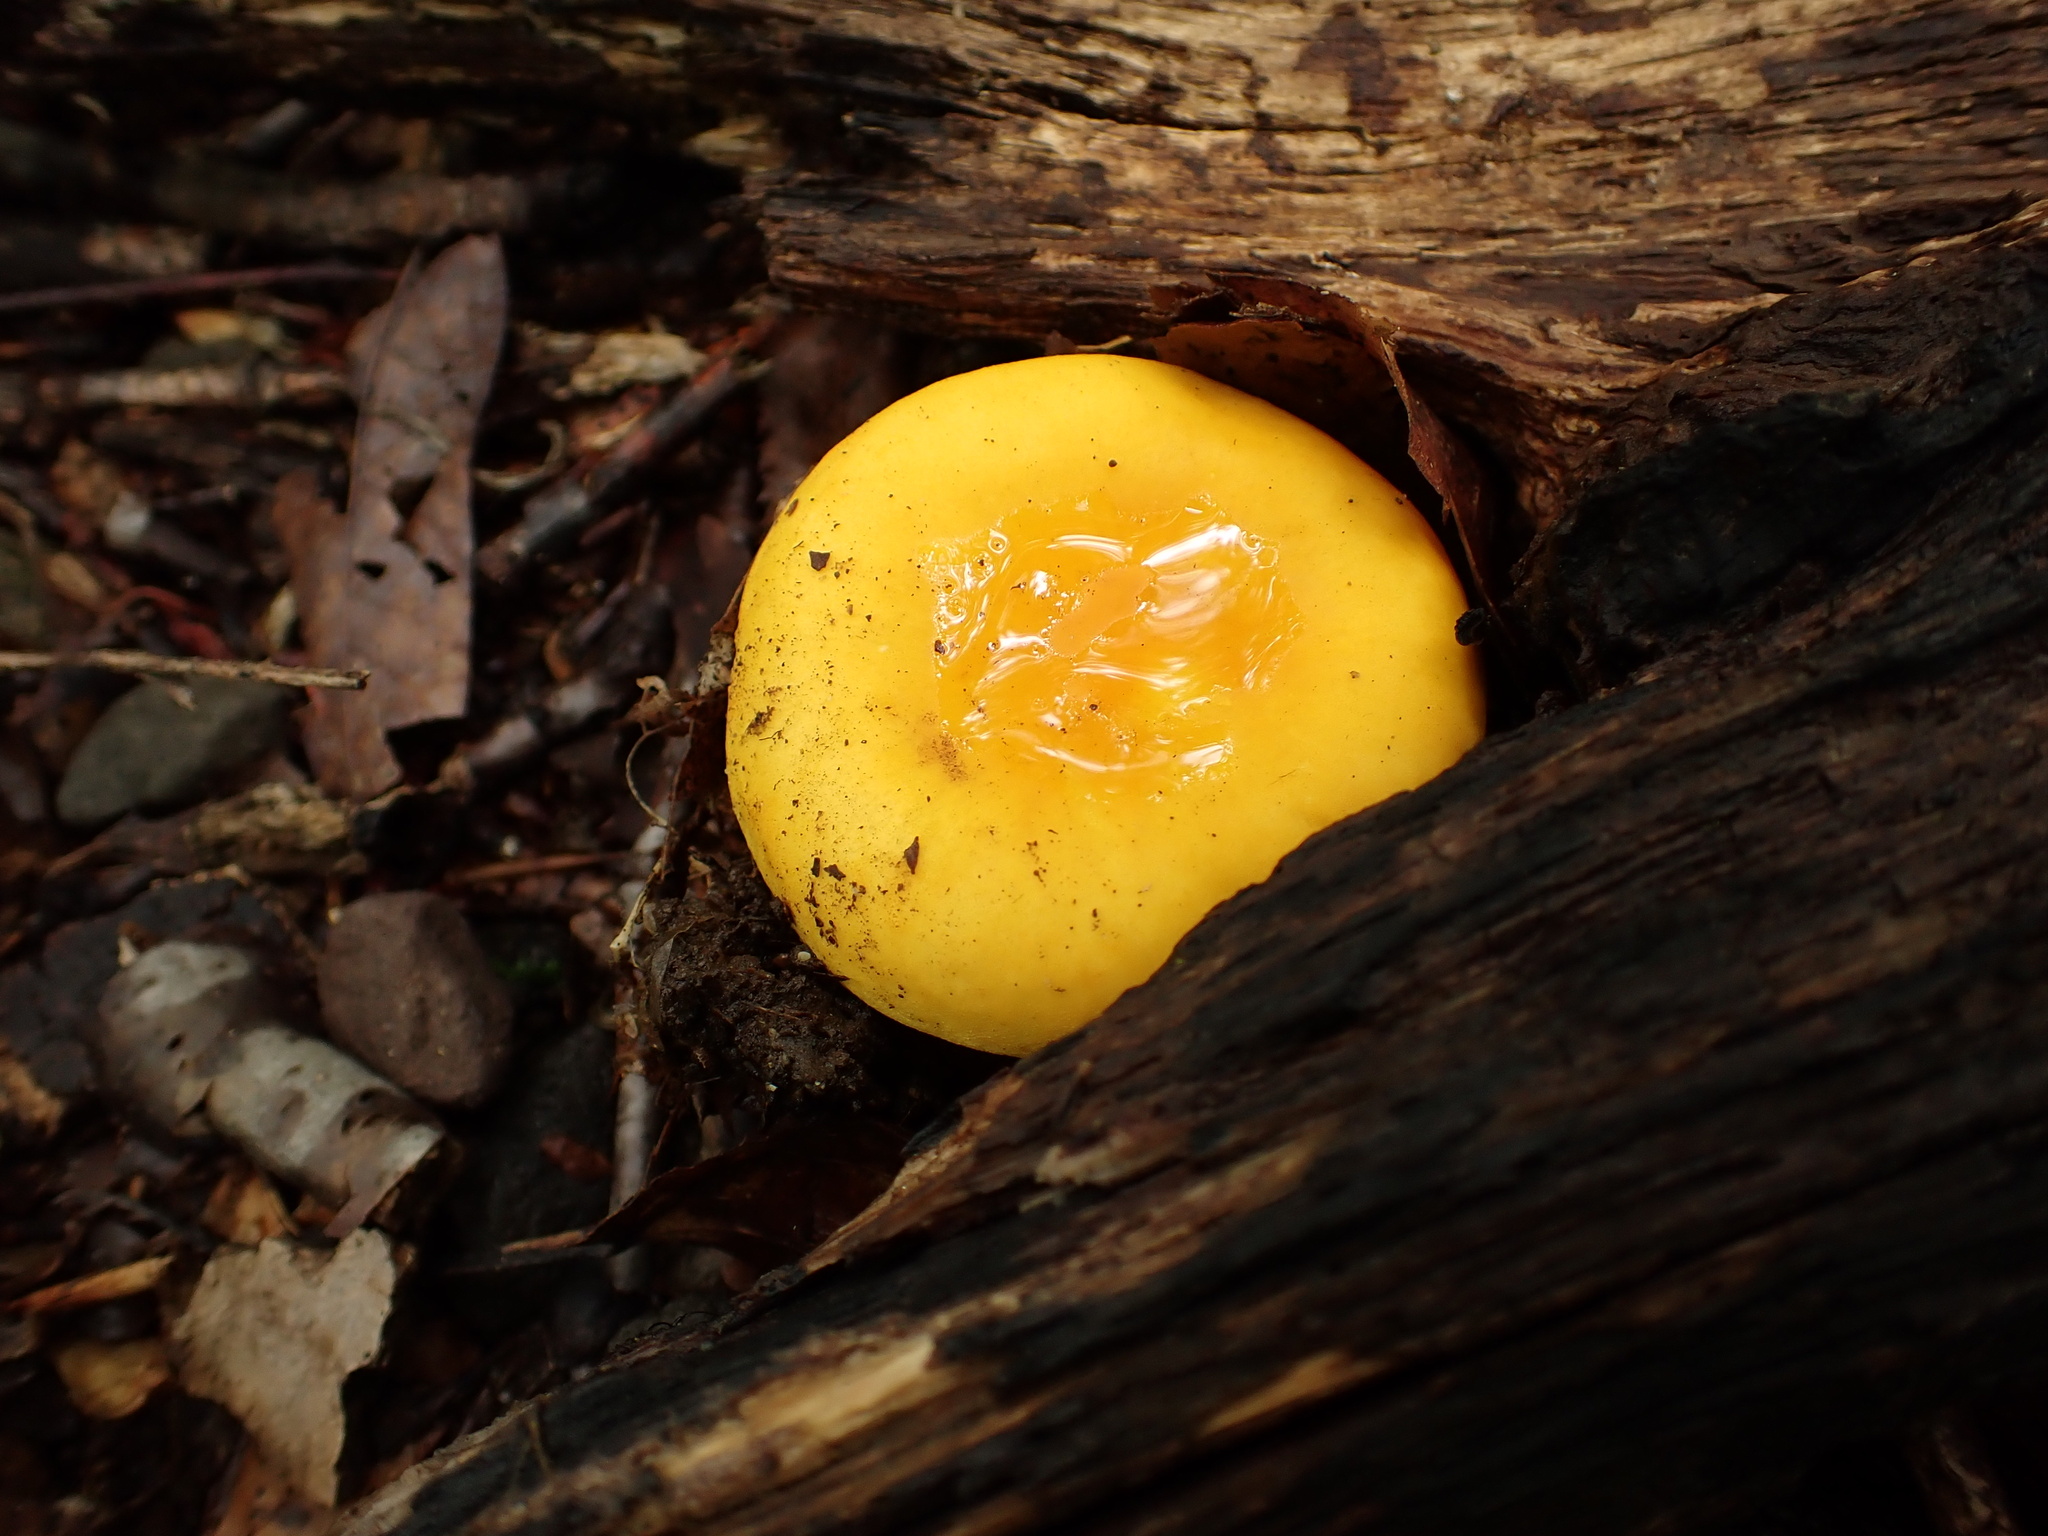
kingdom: Fungi
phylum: Basidiomycota
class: Agaricomycetes
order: Russulales
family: Russulaceae
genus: Russula
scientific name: Russula flavida
